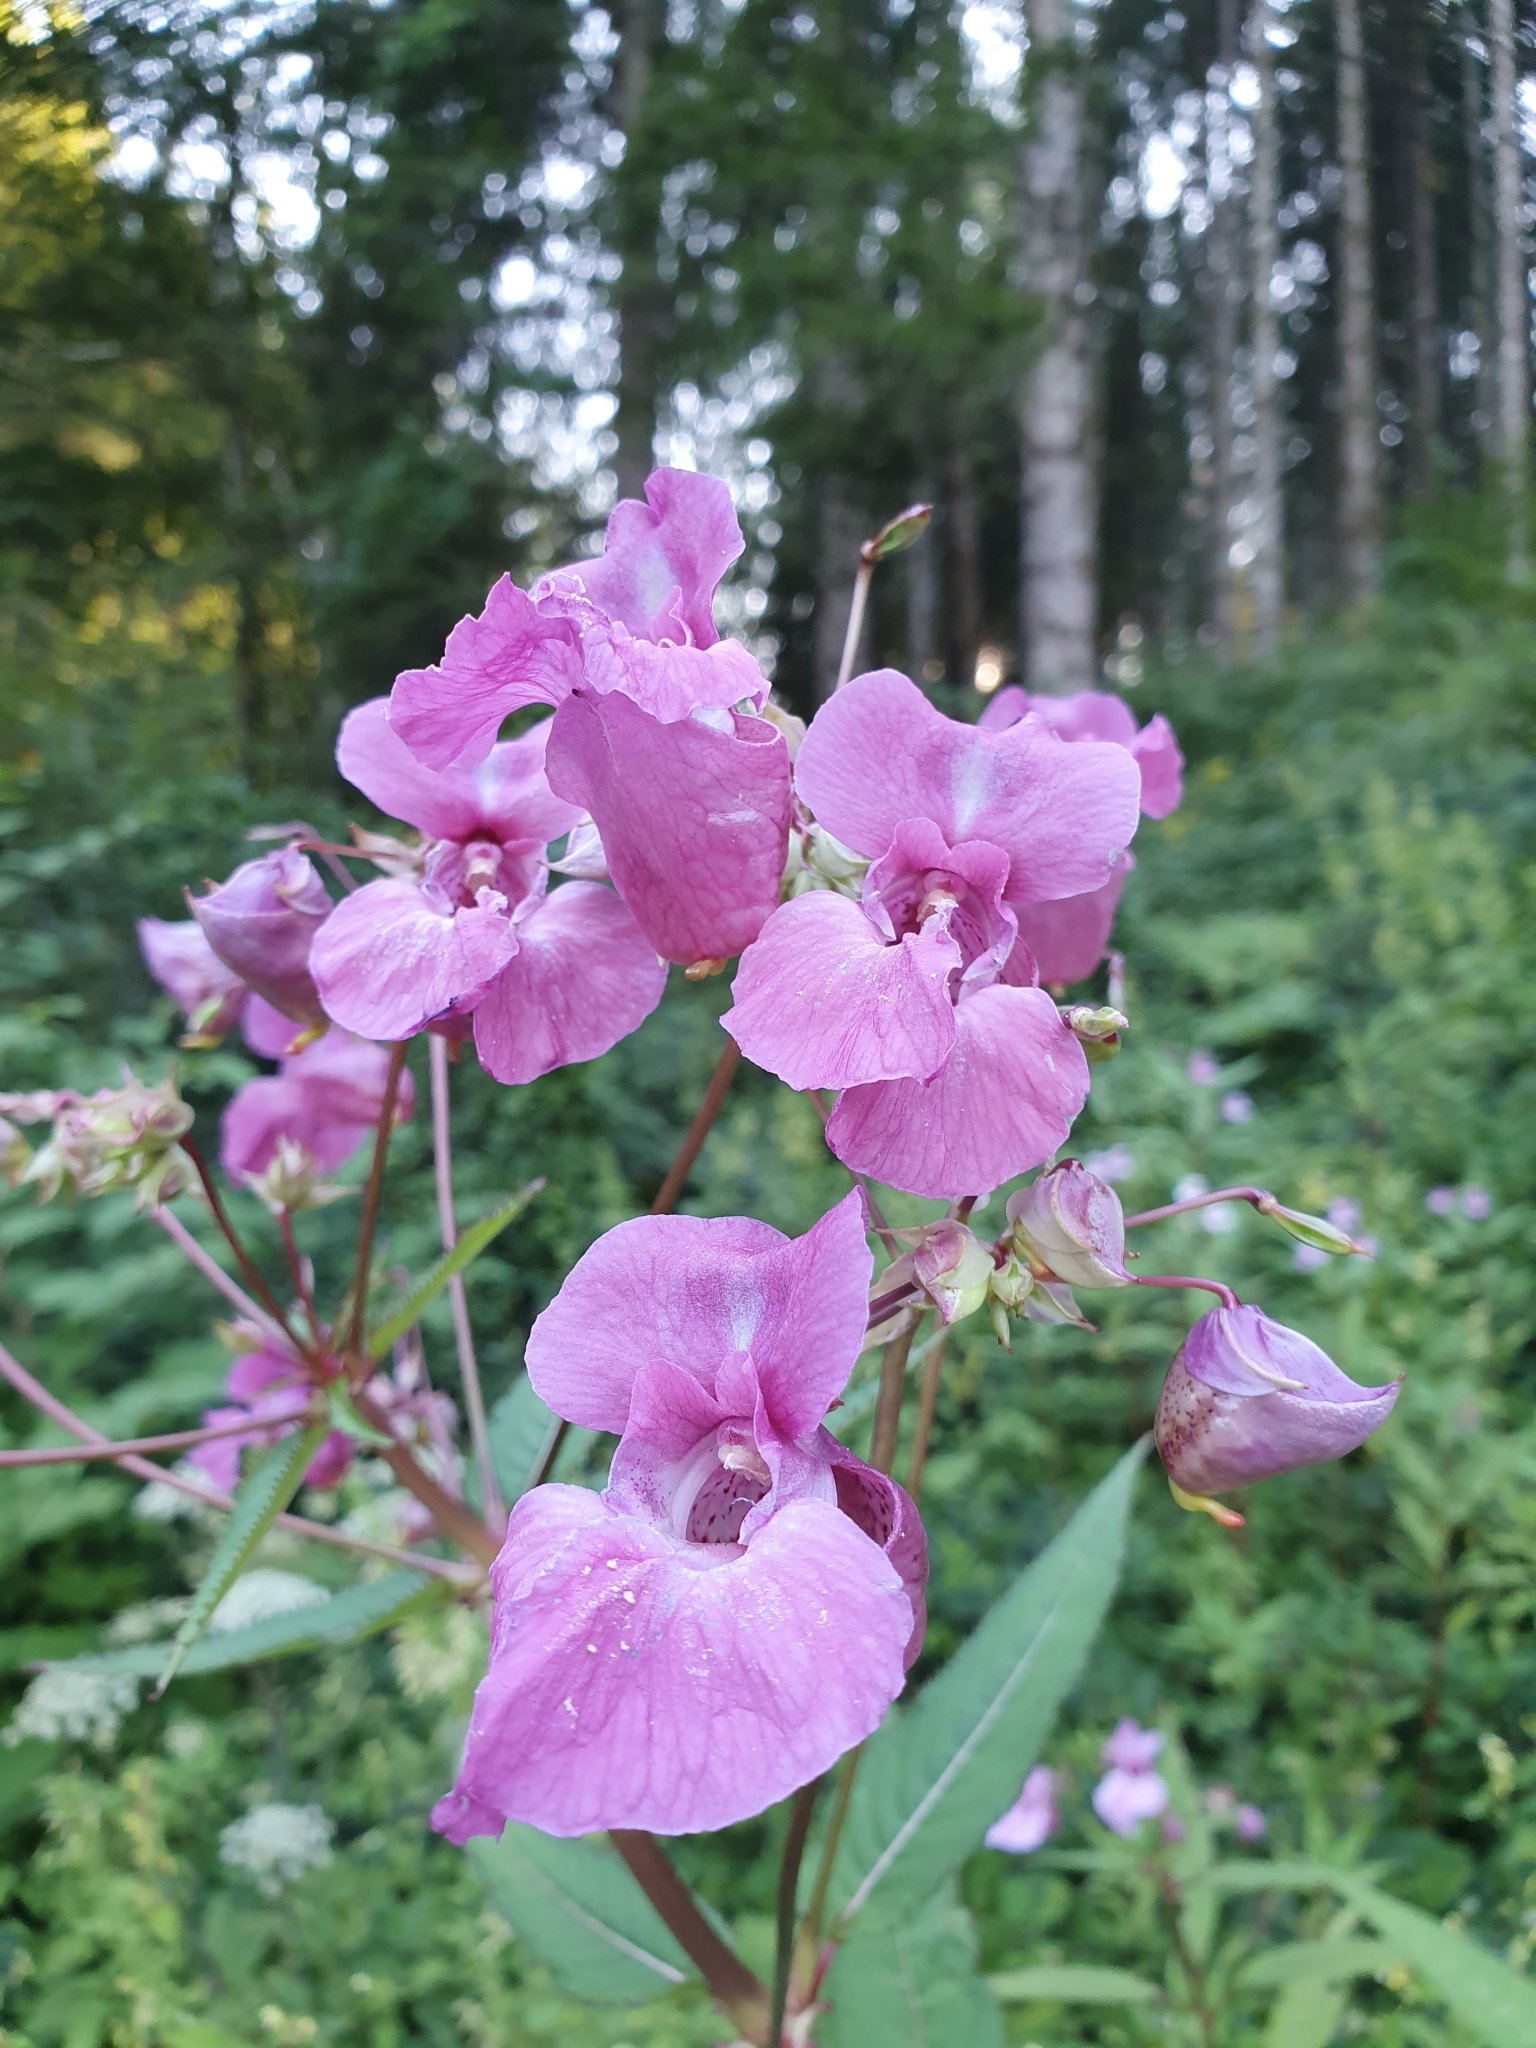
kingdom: Plantae
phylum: Tracheophyta
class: Magnoliopsida
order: Ericales
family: Balsaminaceae
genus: Impatiens
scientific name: Impatiens glandulifera
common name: Himalayan balsam
